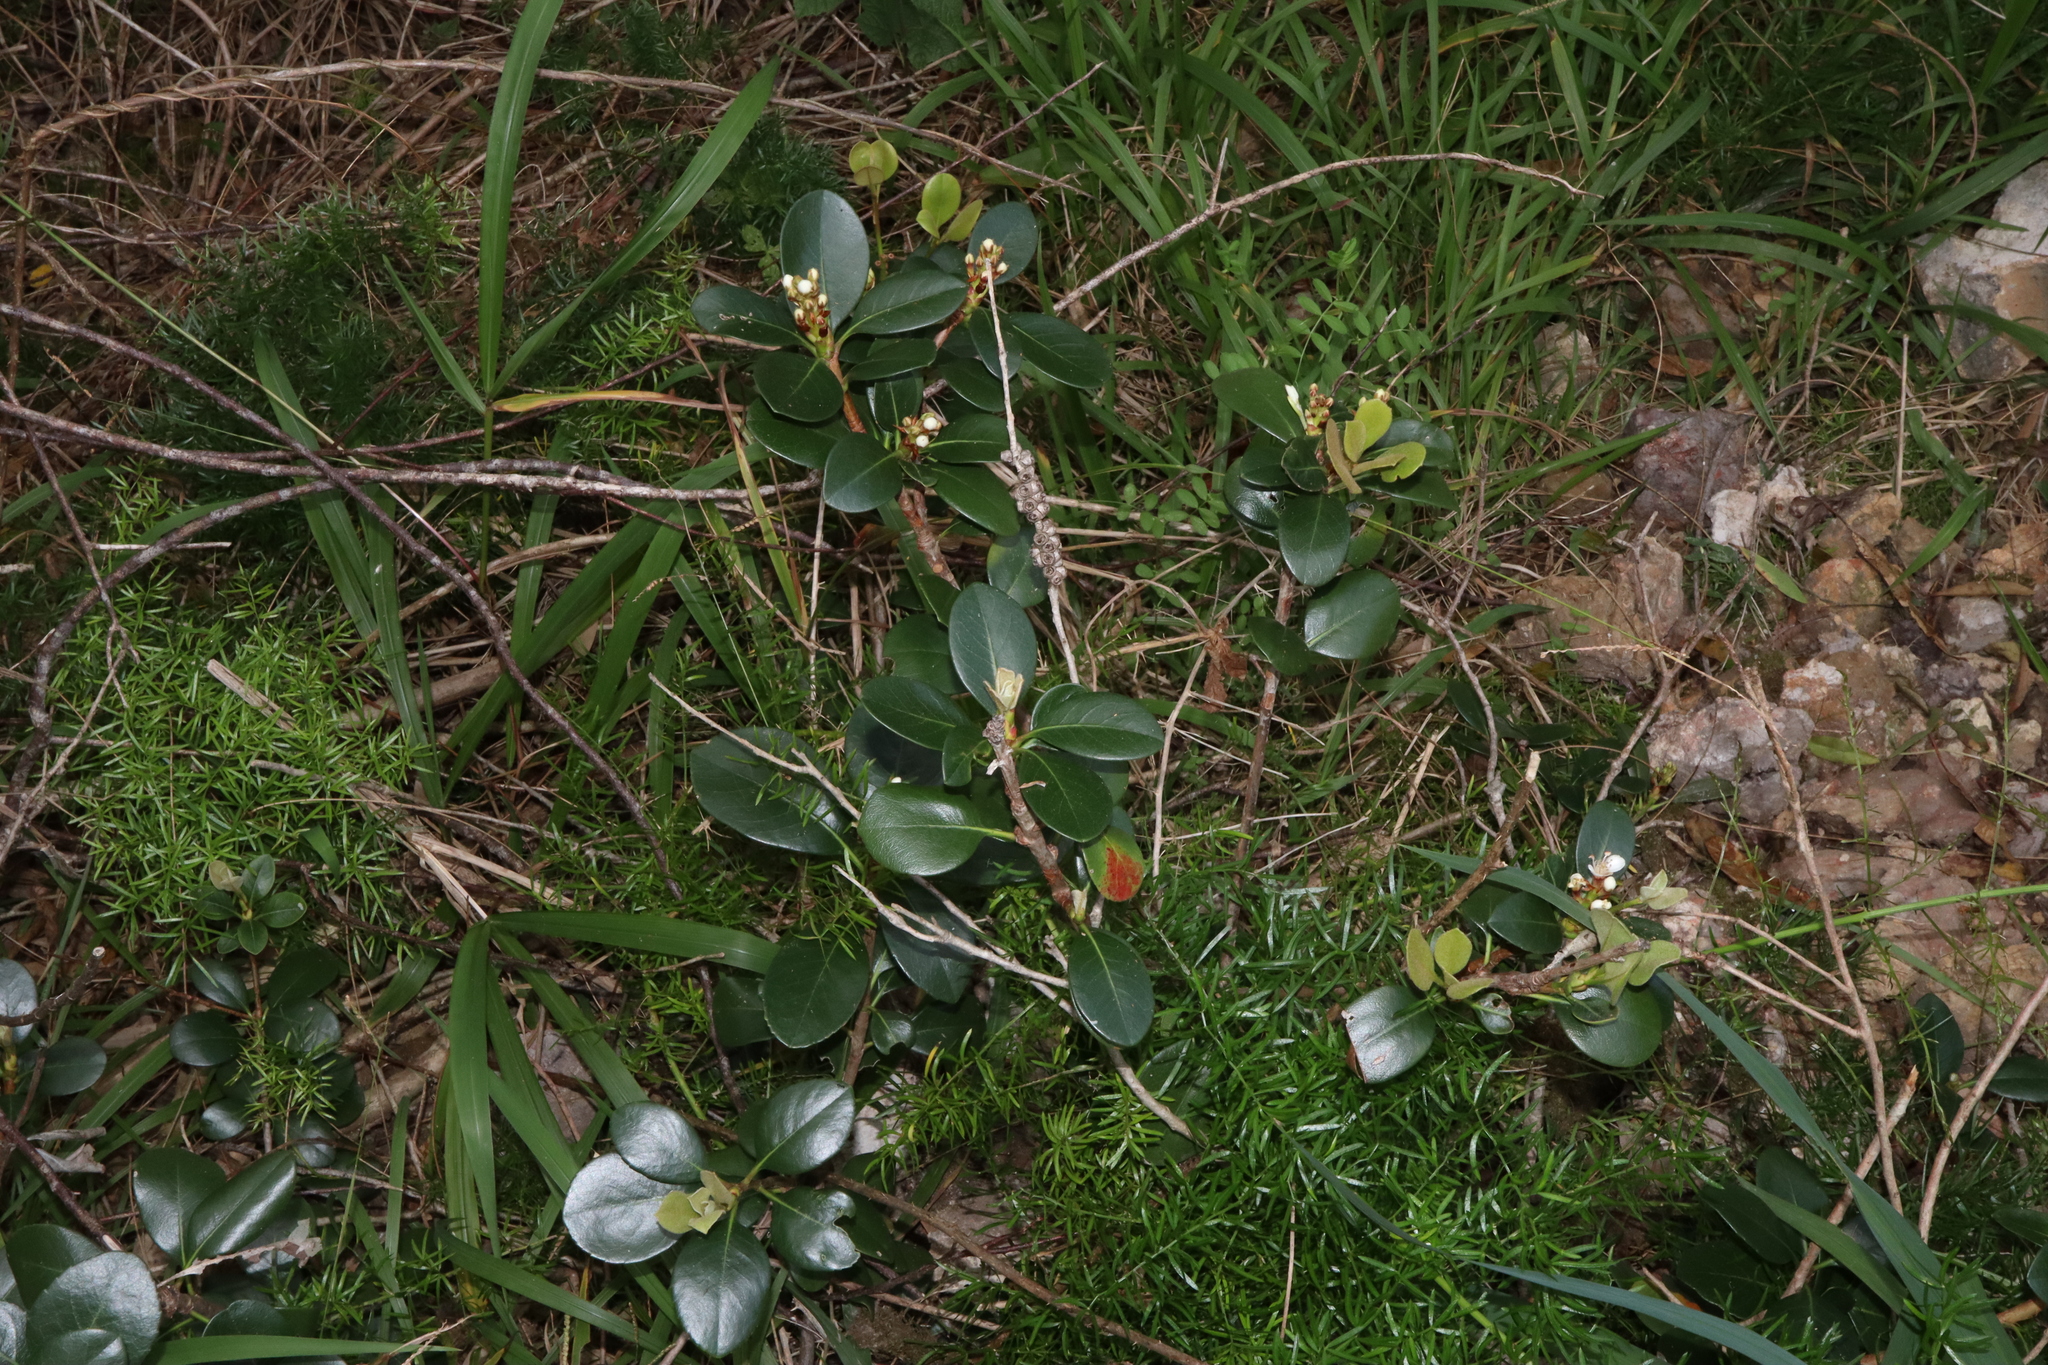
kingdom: Plantae
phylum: Tracheophyta
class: Magnoliopsida
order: Rosales
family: Rosaceae
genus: Rhaphiolepis
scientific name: Rhaphiolepis indica
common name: India-hawthorn
